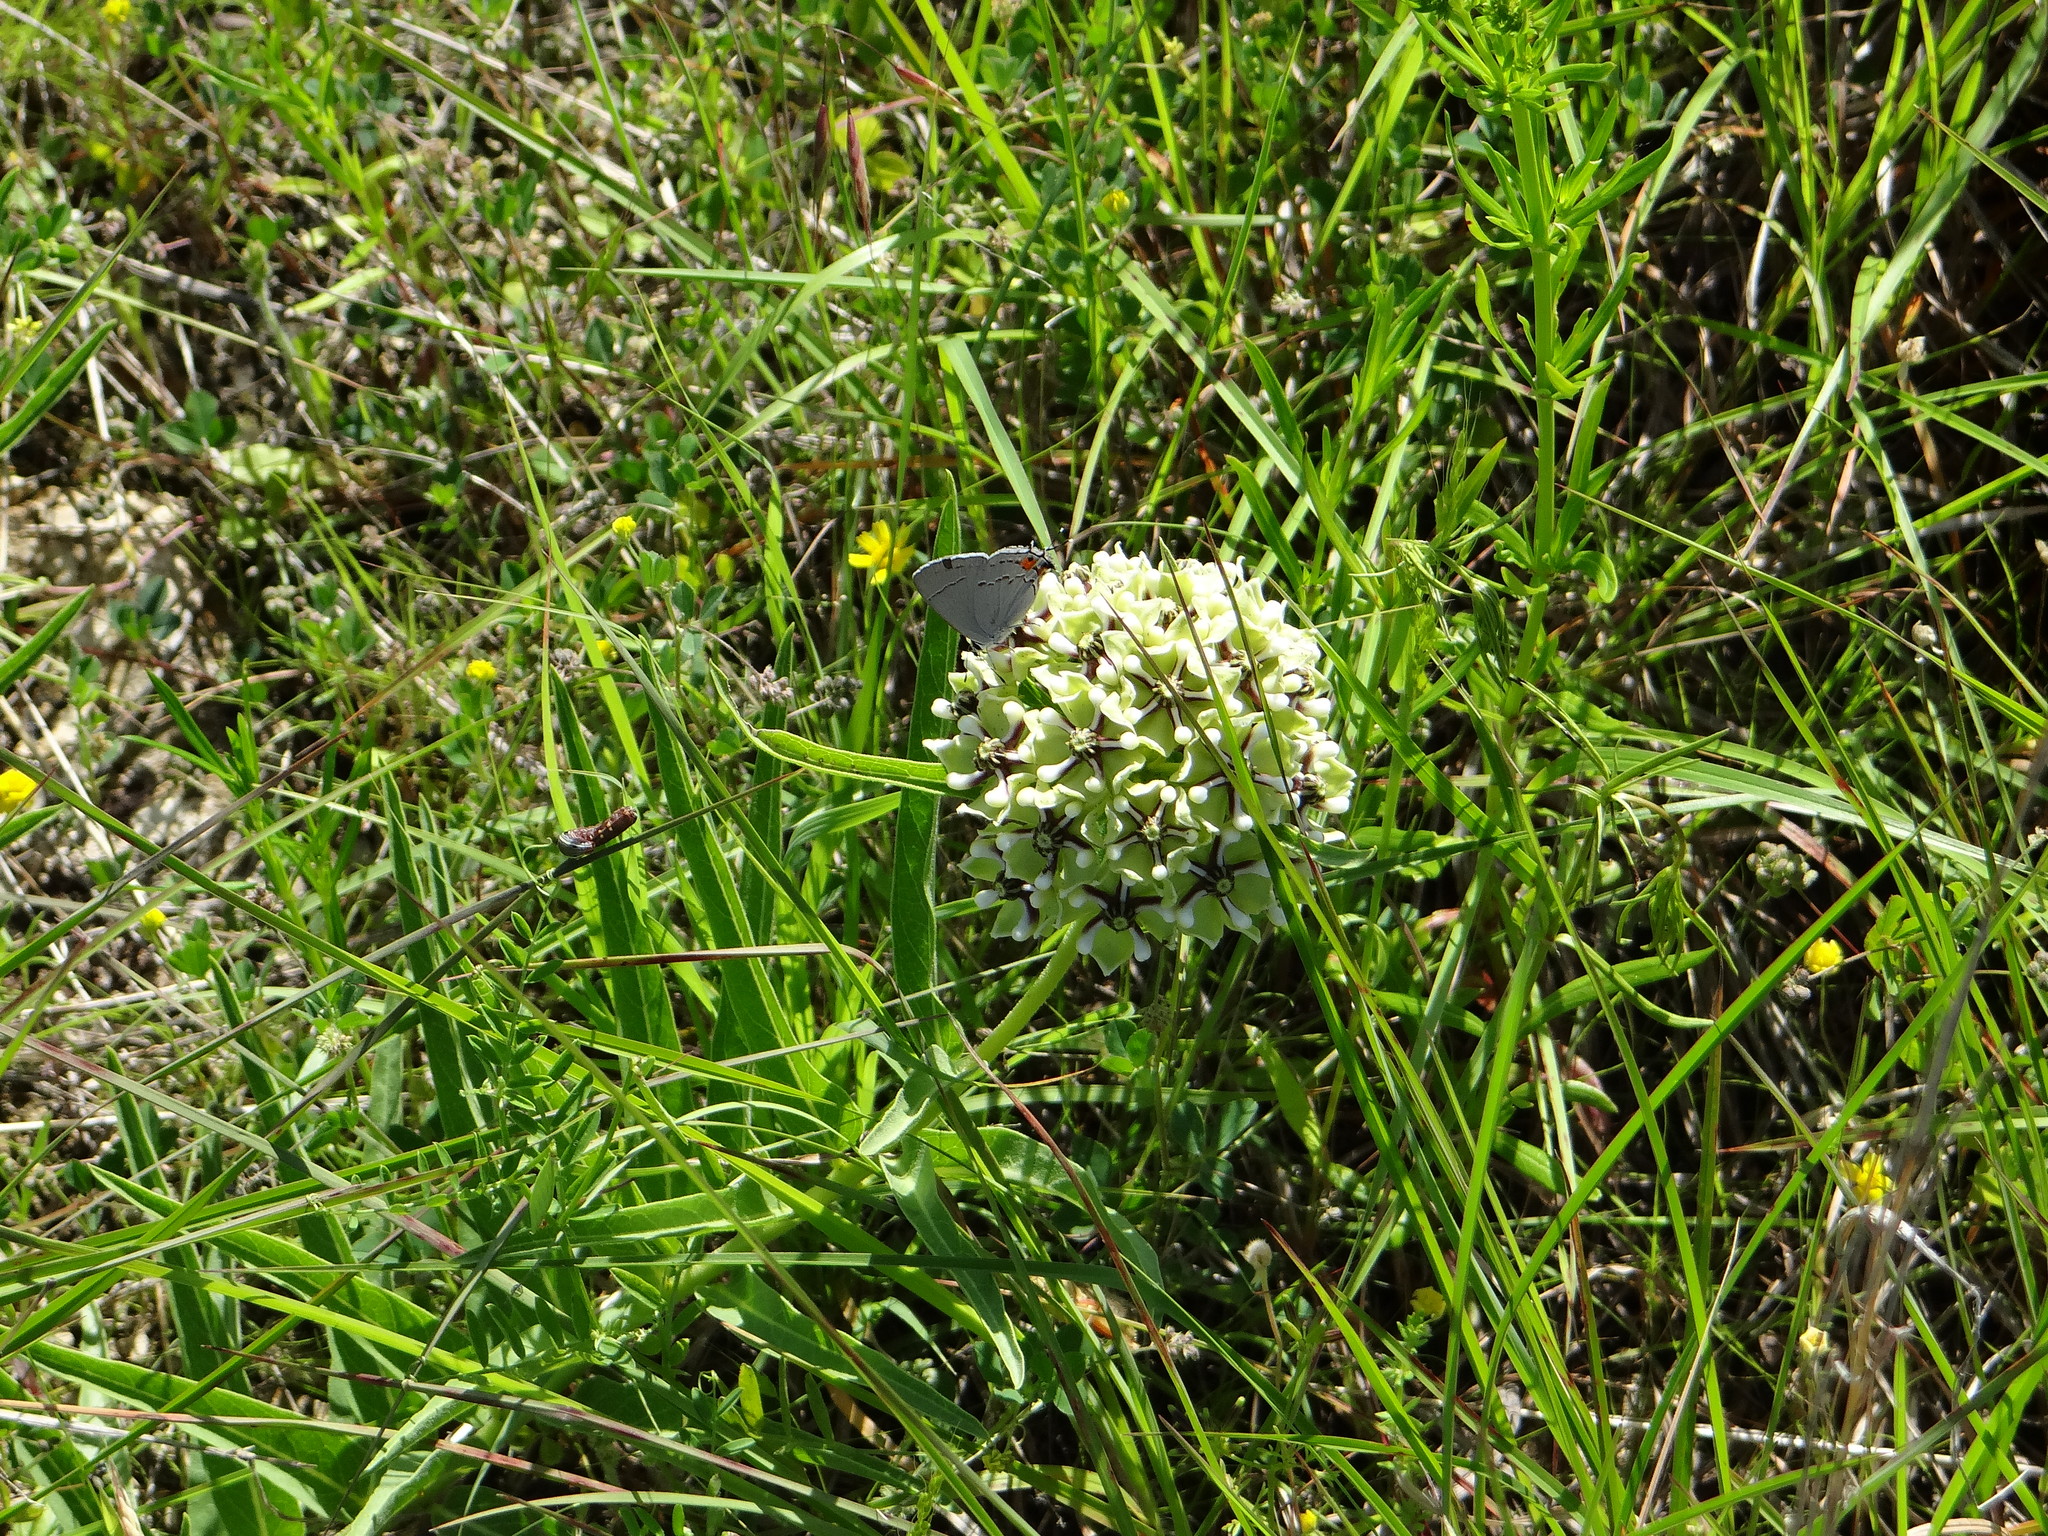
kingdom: Animalia
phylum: Arthropoda
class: Insecta
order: Lepidoptera
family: Lycaenidae
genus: Strymon
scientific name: Strymon melinus
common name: Gray hairstreak
